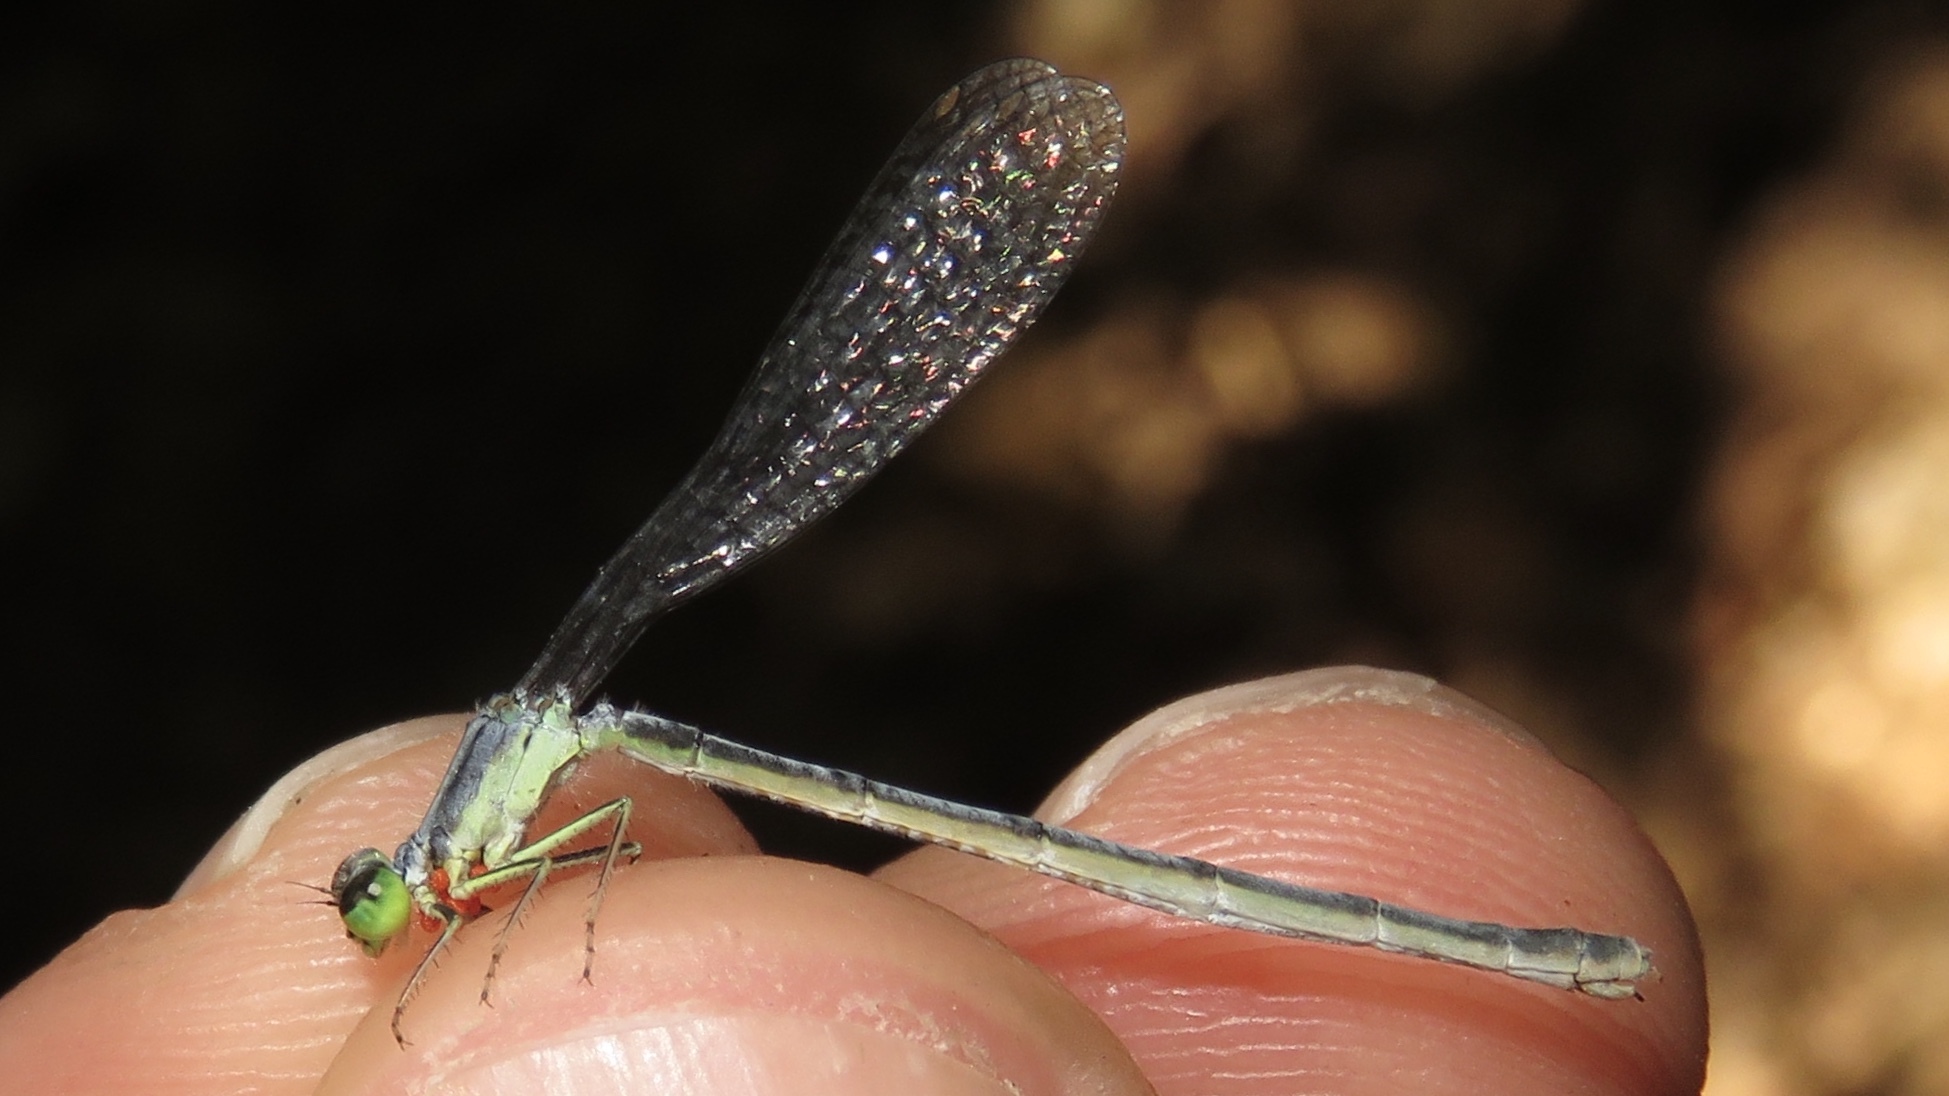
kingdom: Animalia
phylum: Arthropoda
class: Insecta
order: Odonata
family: Coenagrionidae
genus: Ischnura
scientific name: Ischnura verticalis
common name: Eastern forktail
